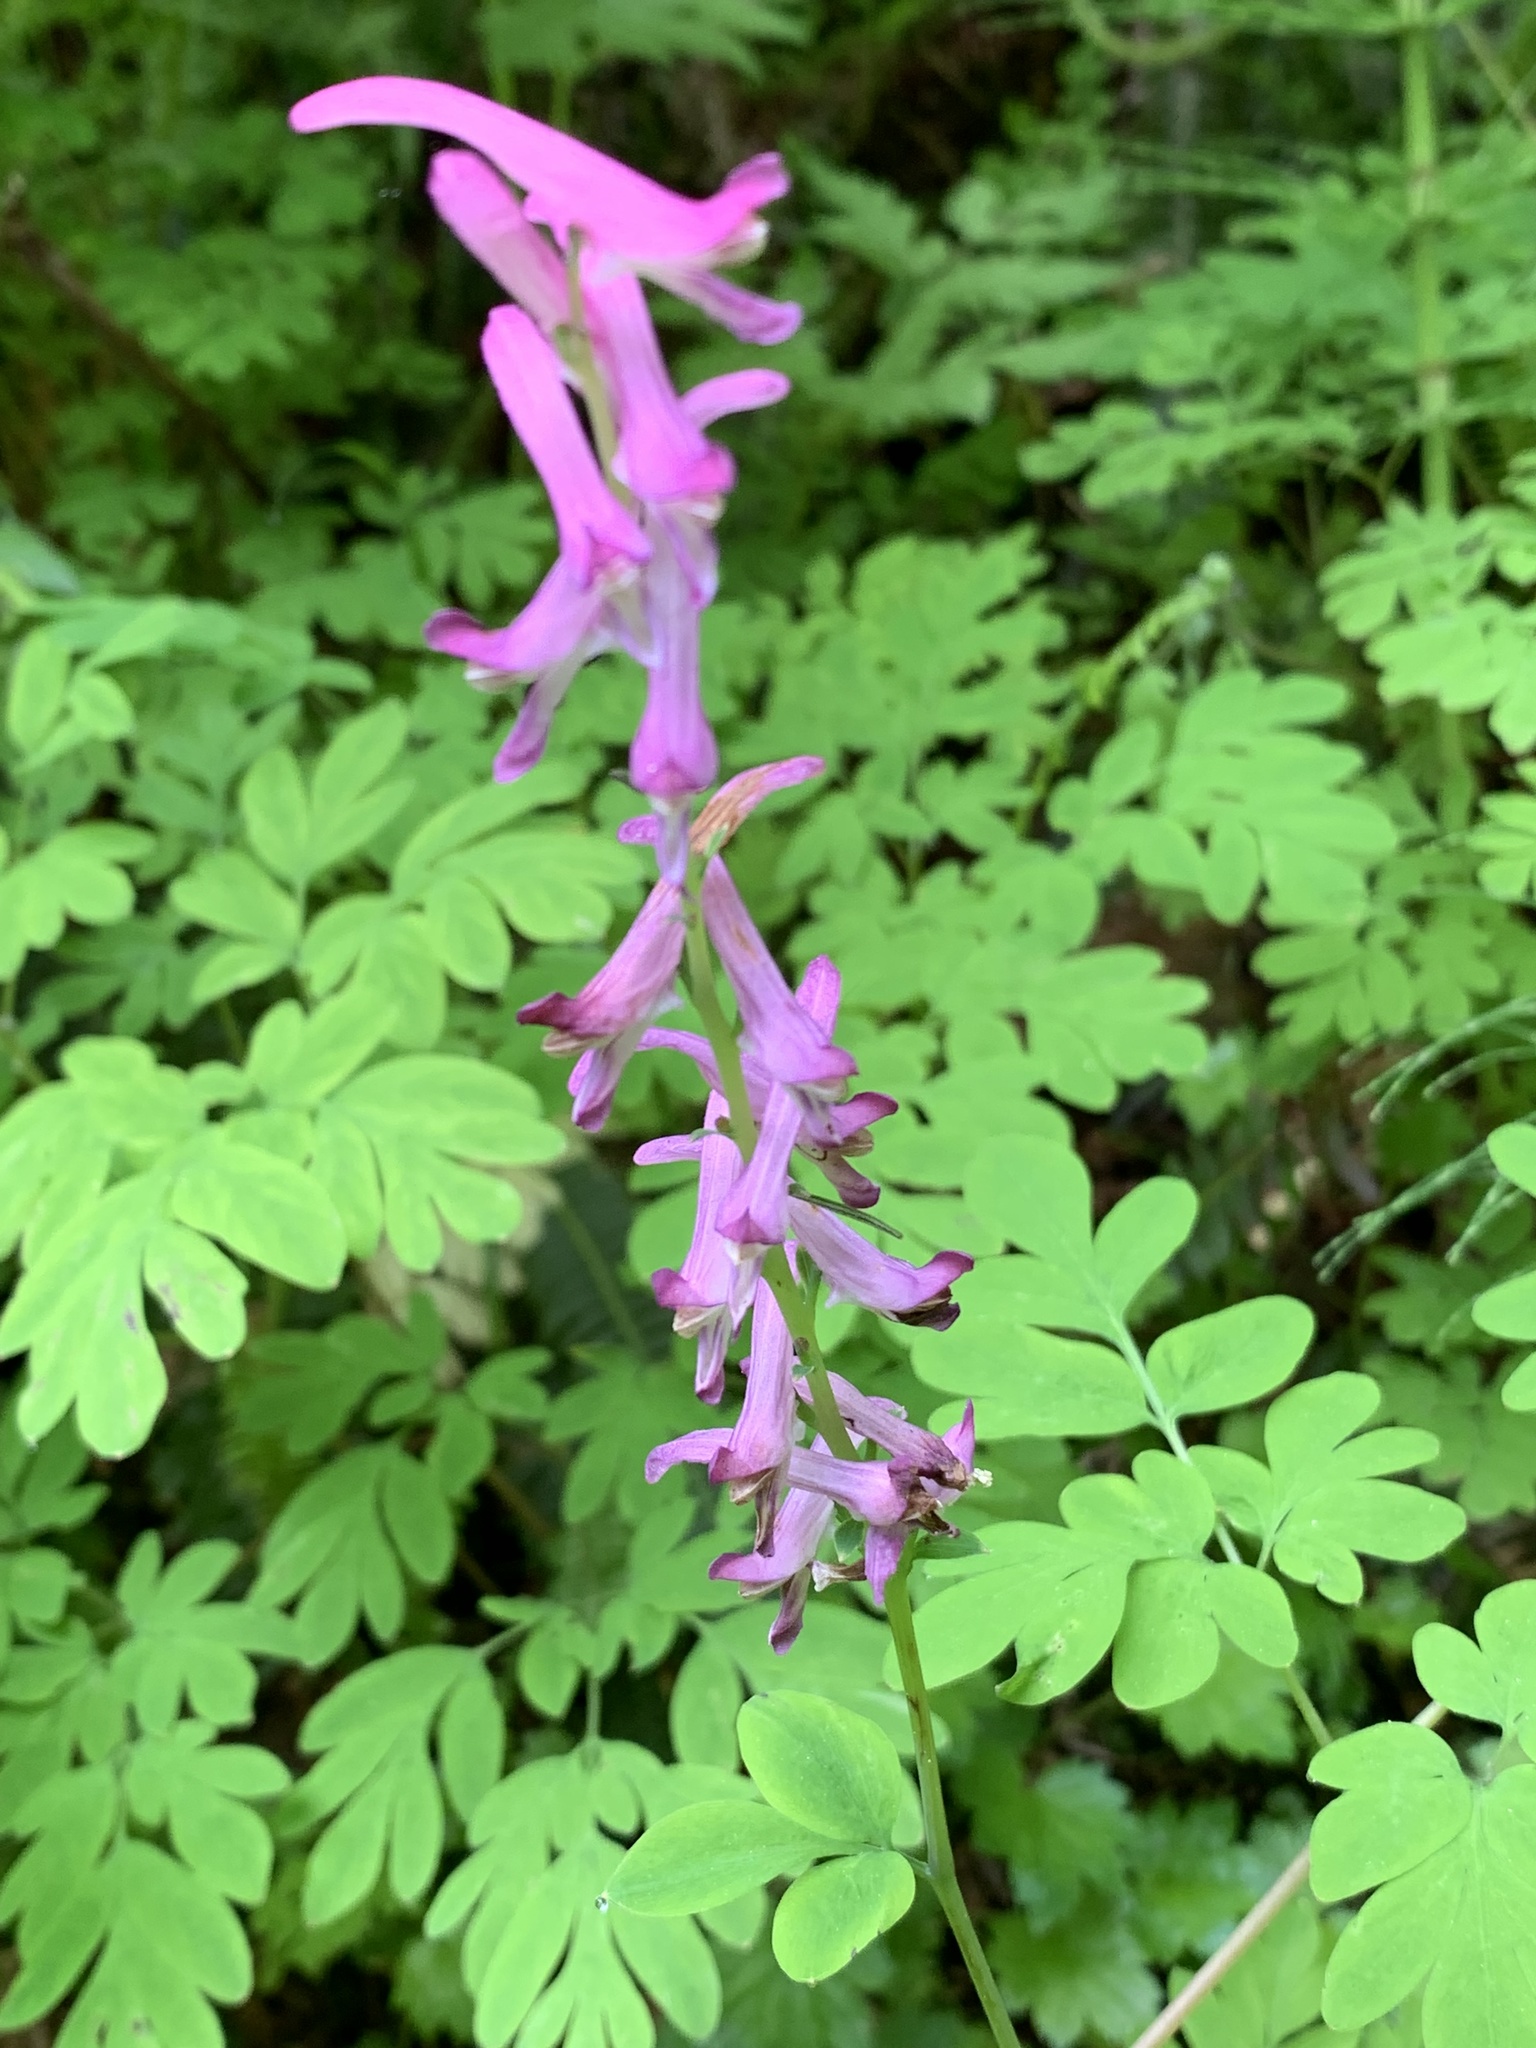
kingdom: Plantae
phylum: Tracheophyta
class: Magnoliopsida
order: Ranunculales
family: Papaveraceae
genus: Corydalis
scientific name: Corydalis scouleri
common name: Scouler's corydalis
